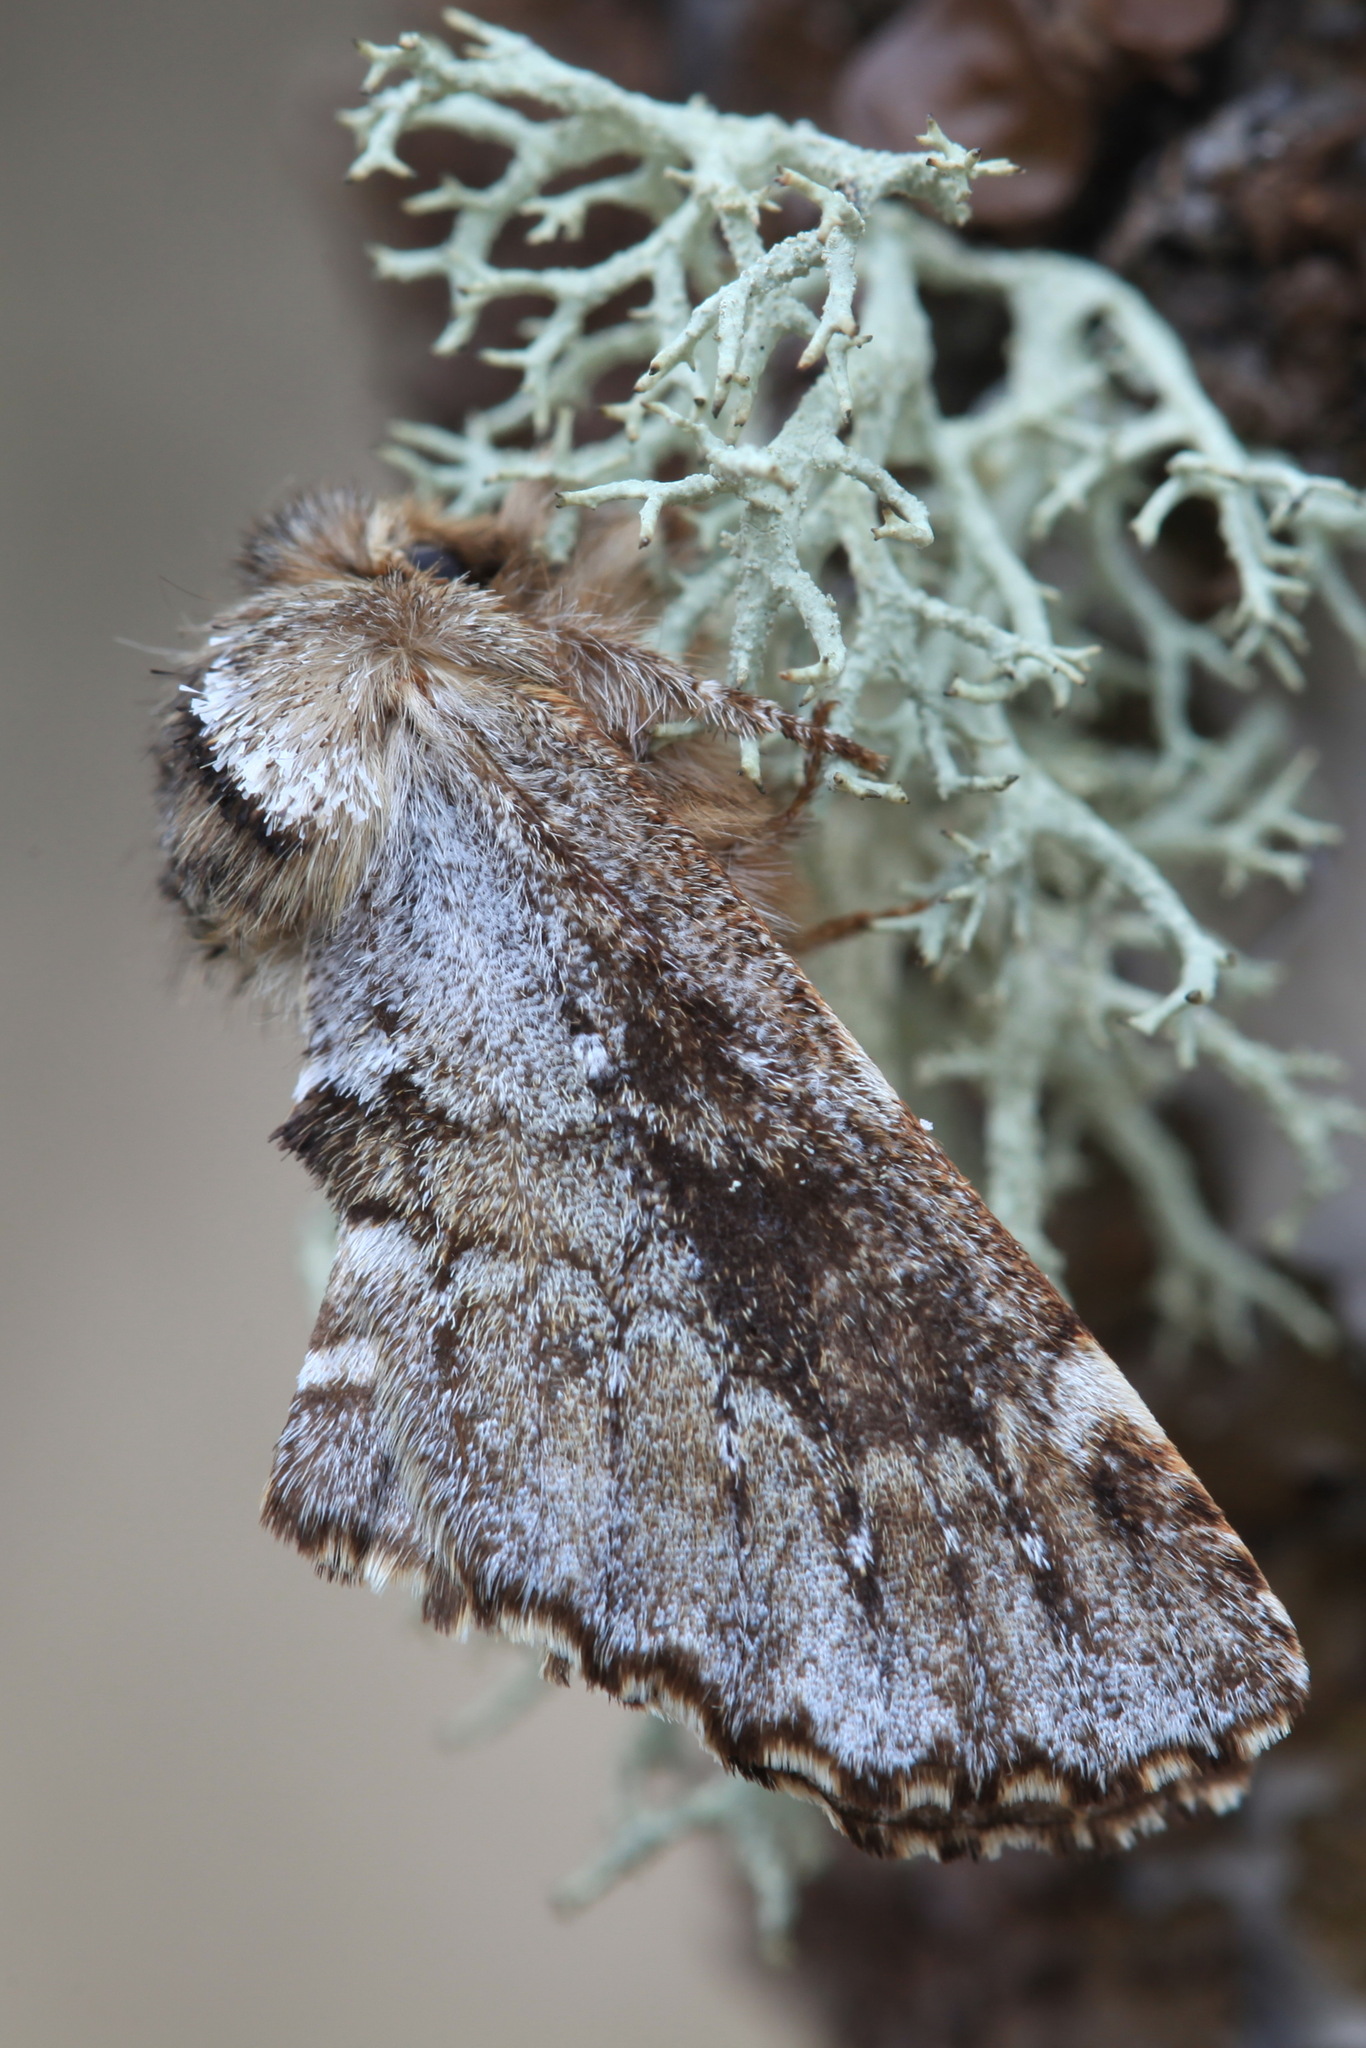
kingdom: Animalia
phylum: Arthropoda
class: Insecta
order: Lepidoptera
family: Notodontidae
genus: Odontosia
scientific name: Odontosia sieversii
